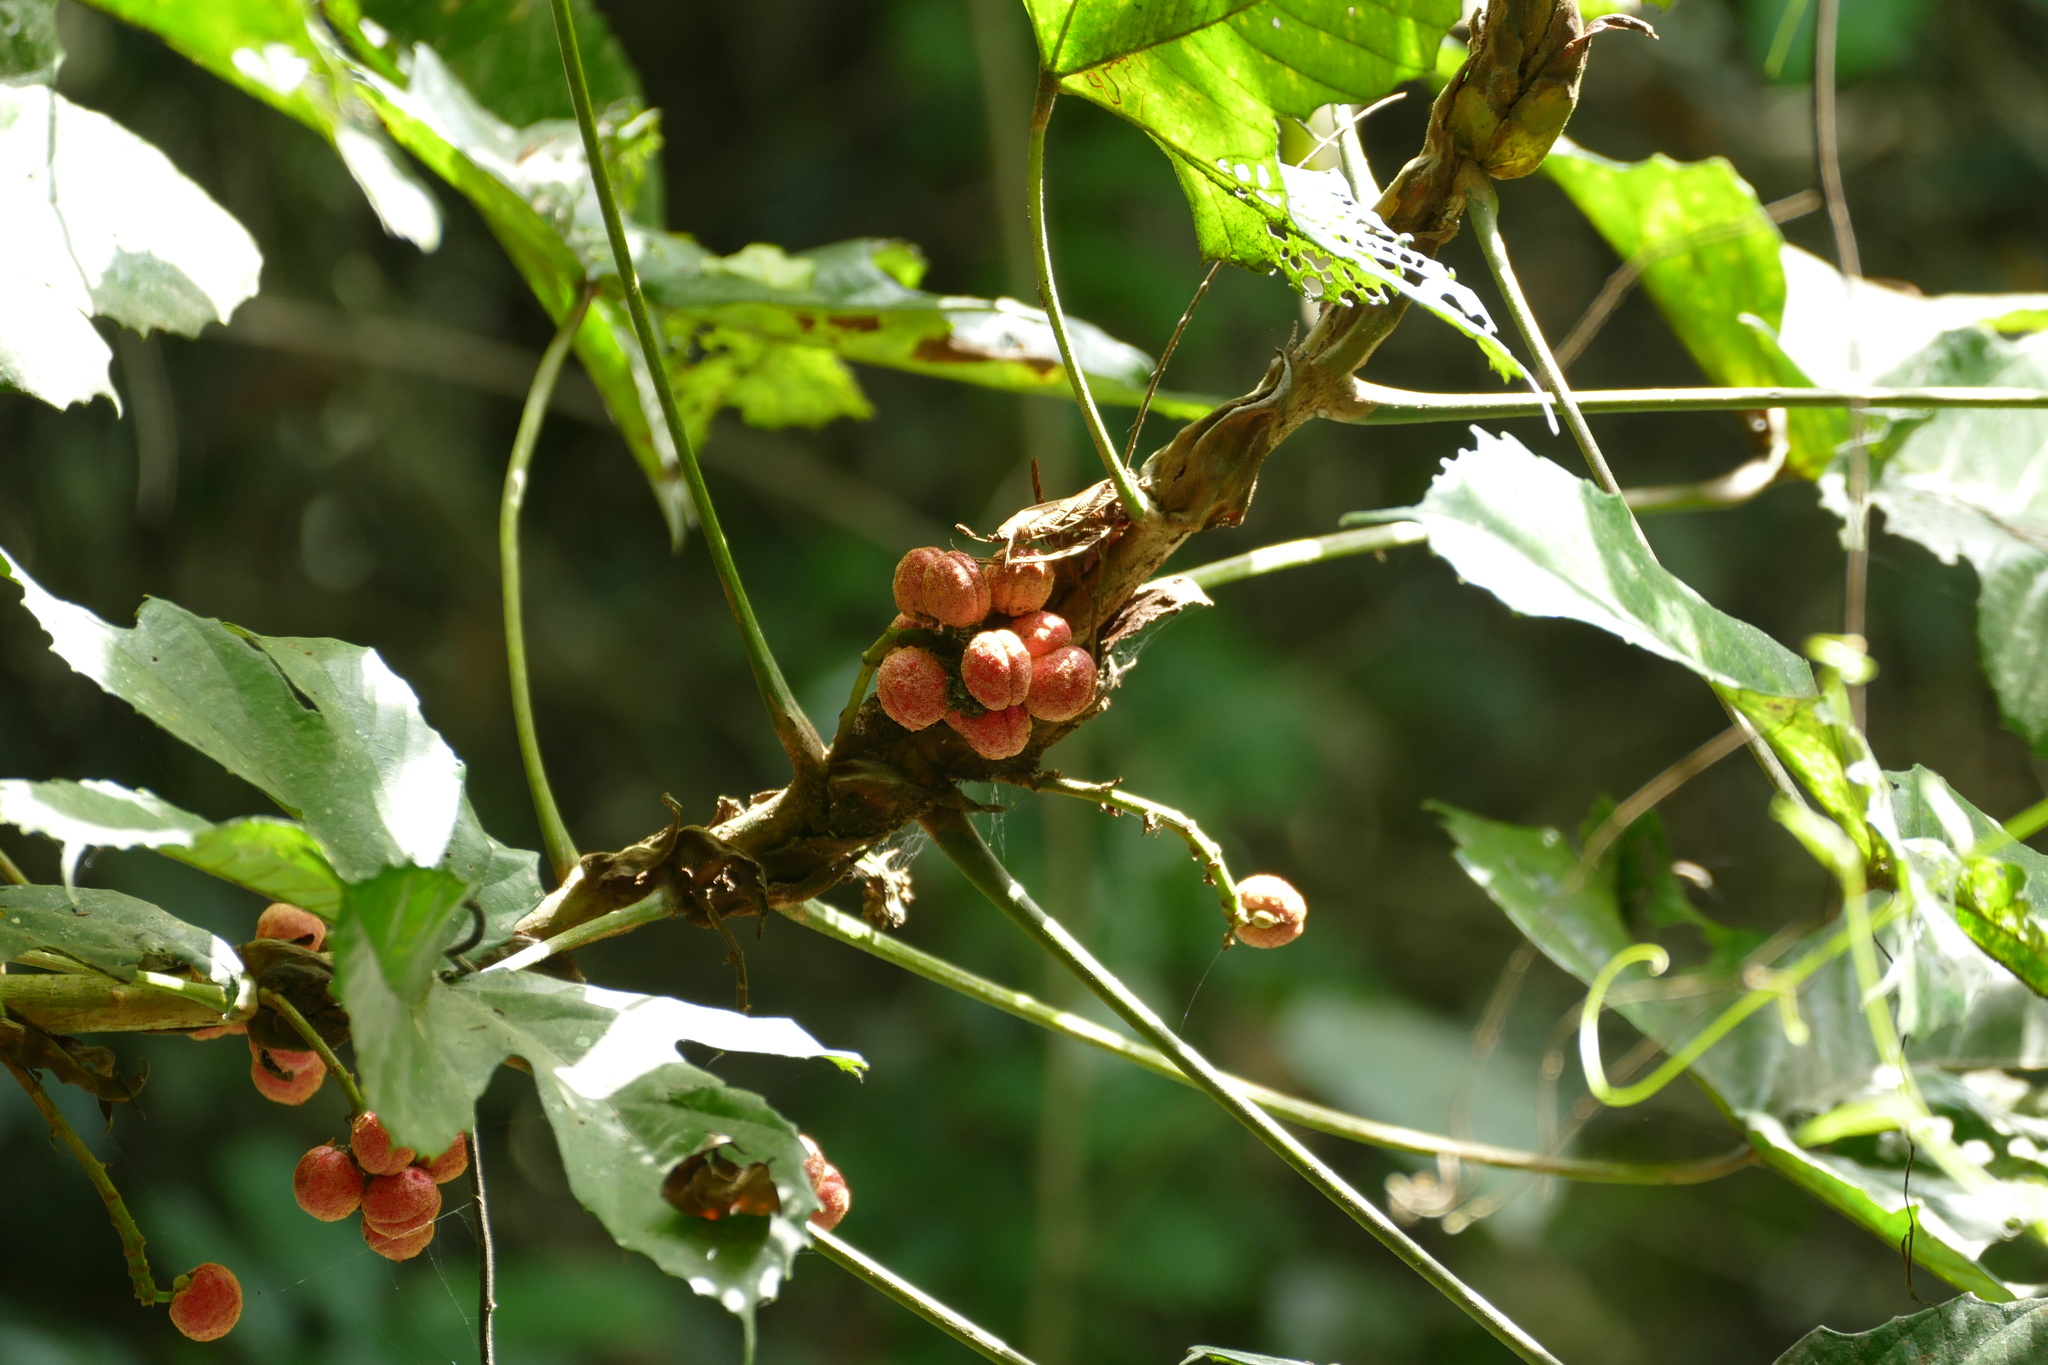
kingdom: Plantae
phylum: Tracheophyta
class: Magnoliopsida
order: Malpighiales
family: Euphorbiaceae
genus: Macaranga
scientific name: Macaranga heterophylla
